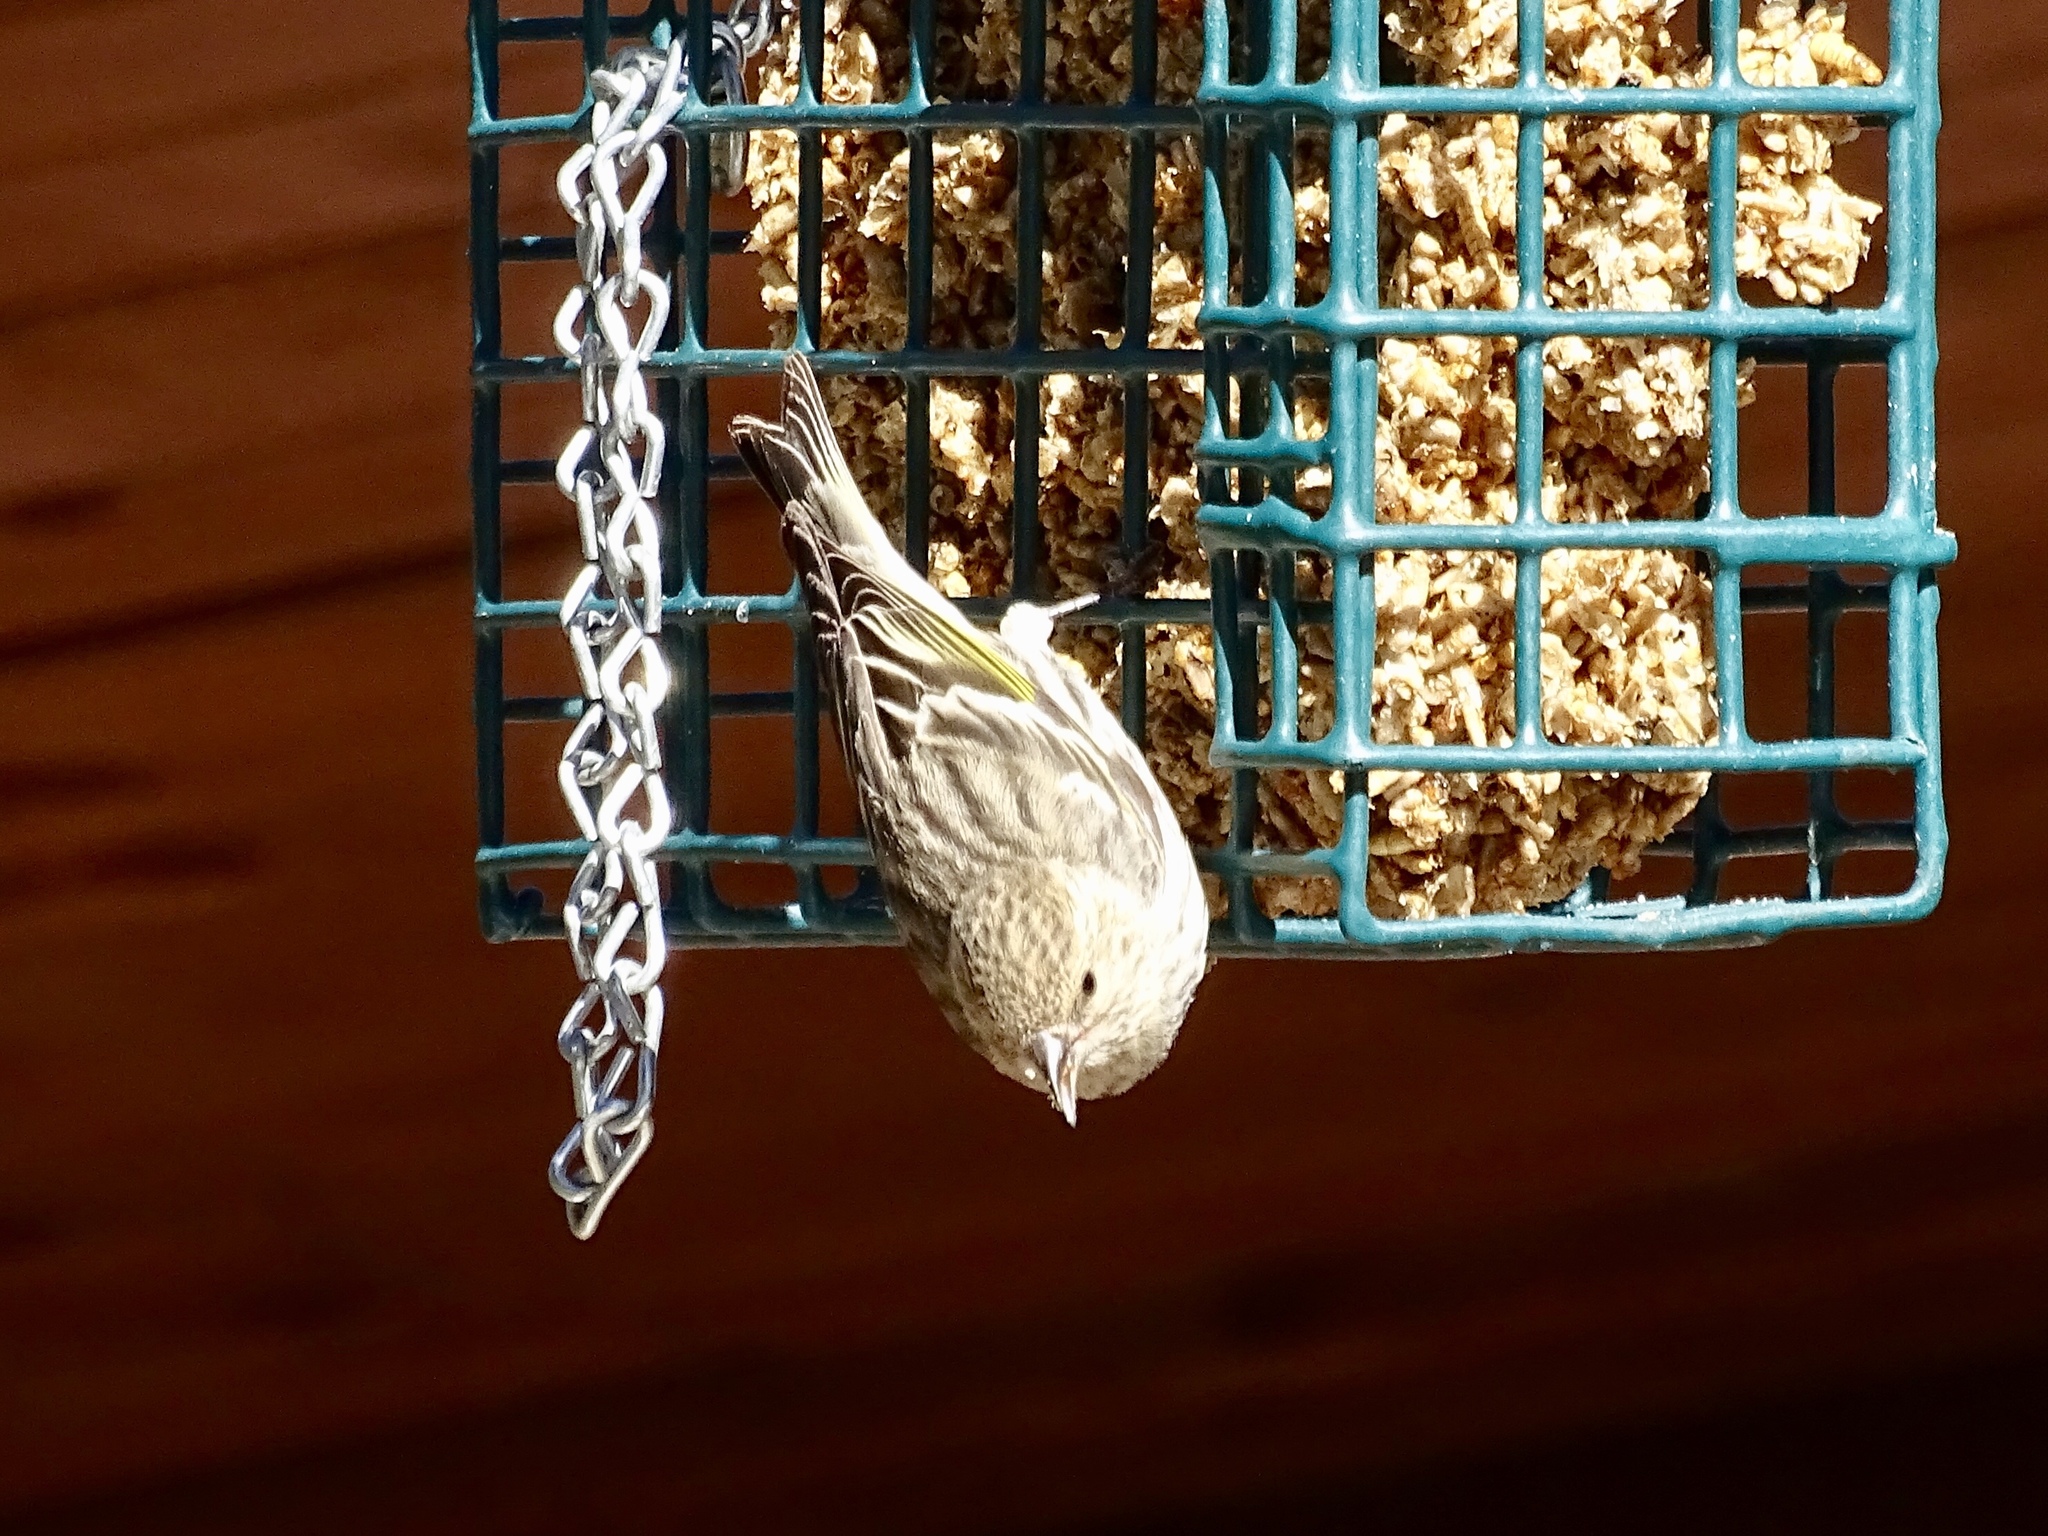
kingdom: Animalia
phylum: Chordata
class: Aves
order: Passeriformes
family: Fringillidae
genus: Spinus
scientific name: Spinus pinus
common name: Pine siskin
